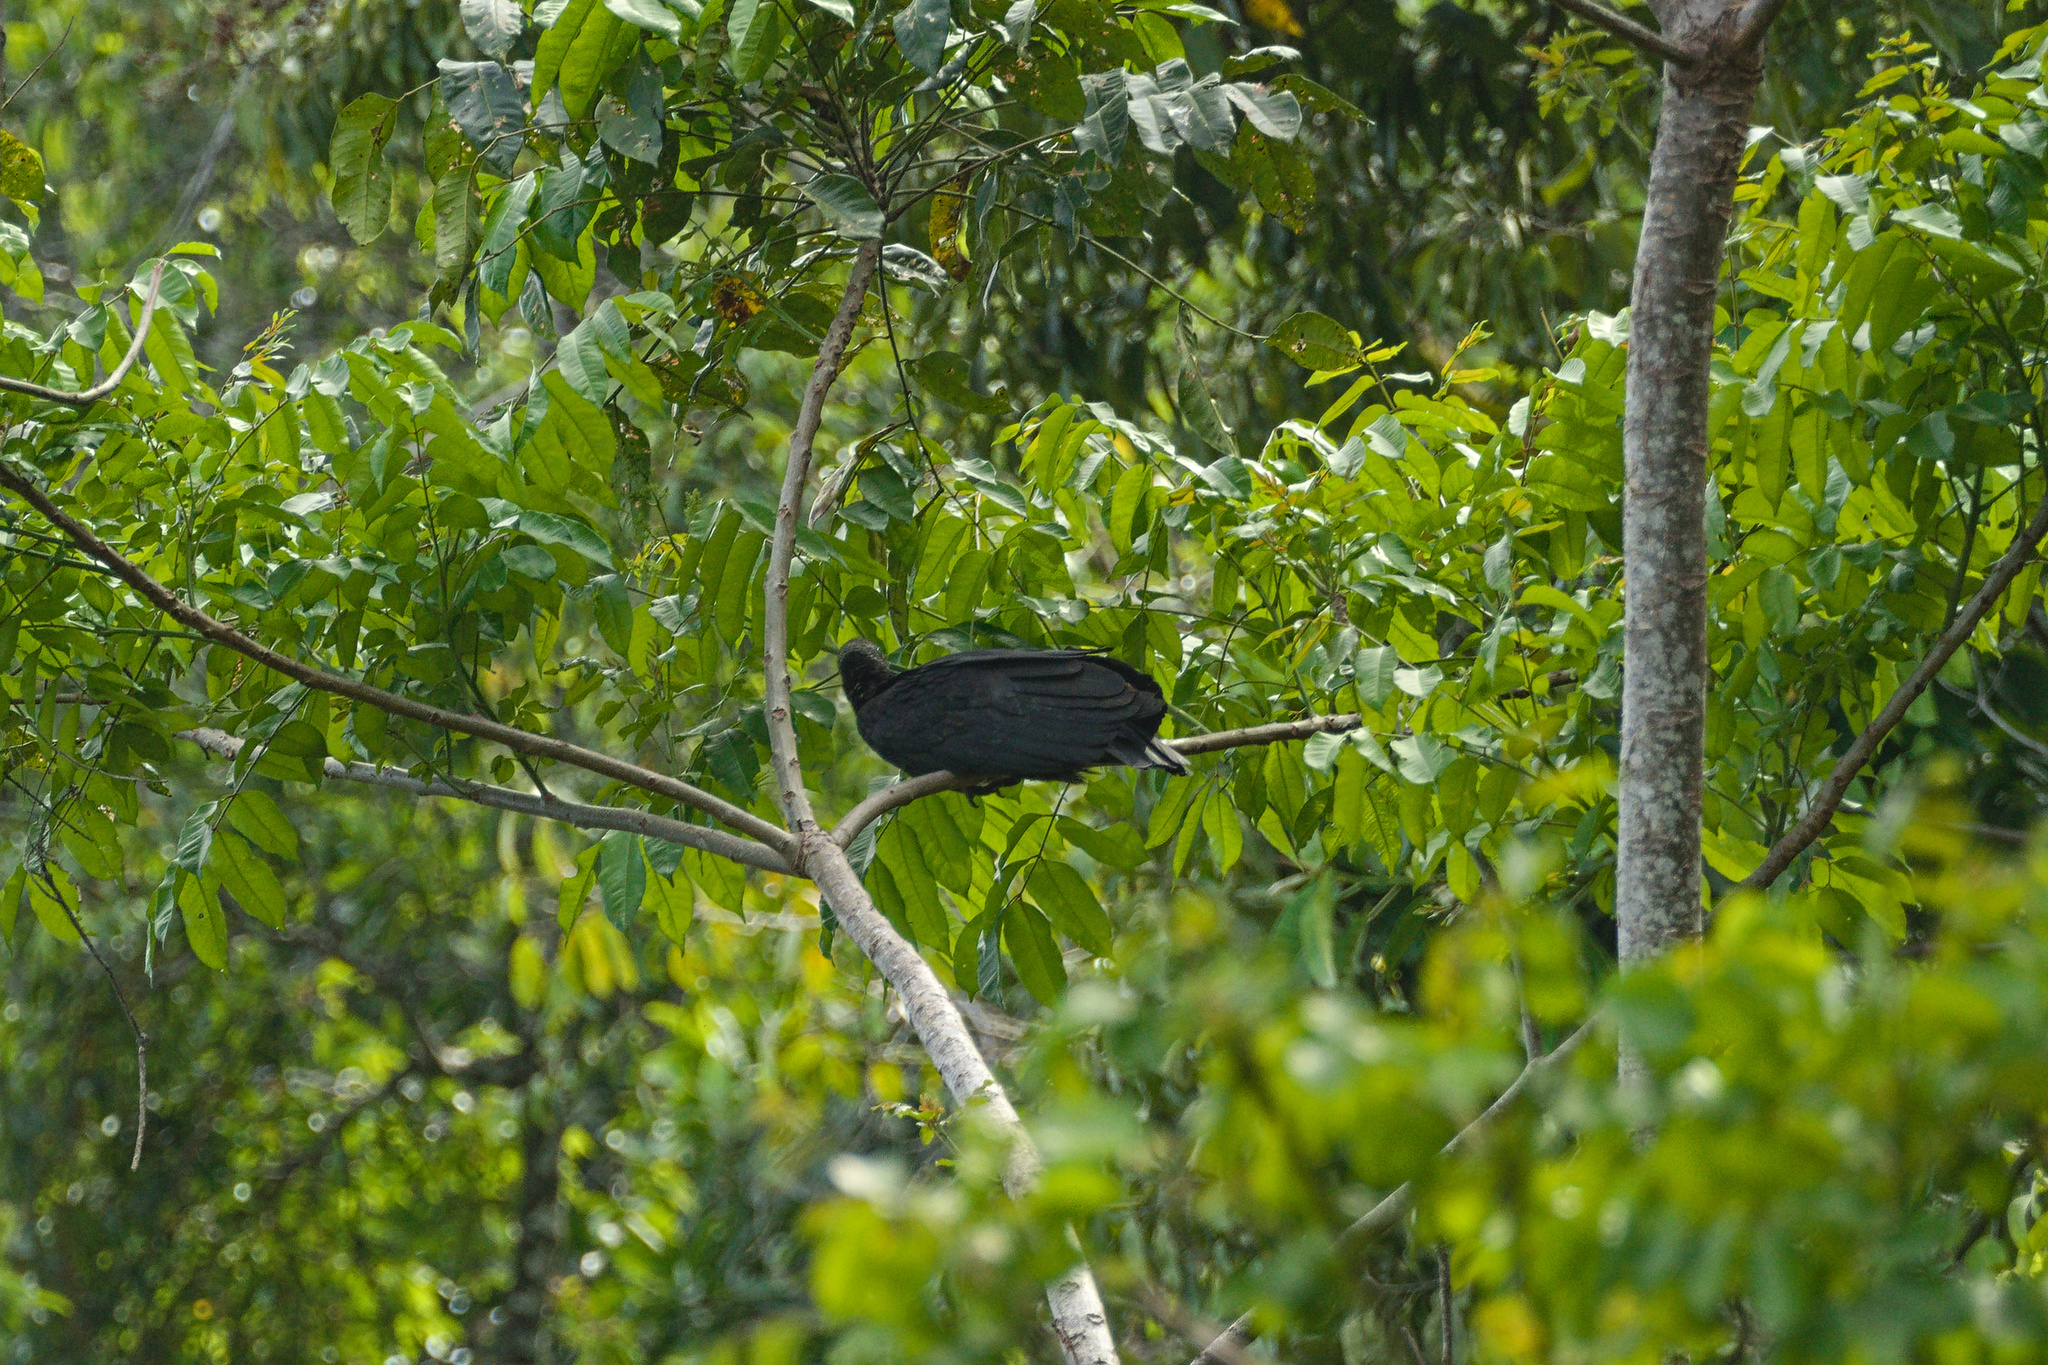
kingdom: Animalia
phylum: Chordata
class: Aves
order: Accipitriformes
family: Cathartidae
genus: Coragyps
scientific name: Coragyps atratus
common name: Black vulture
